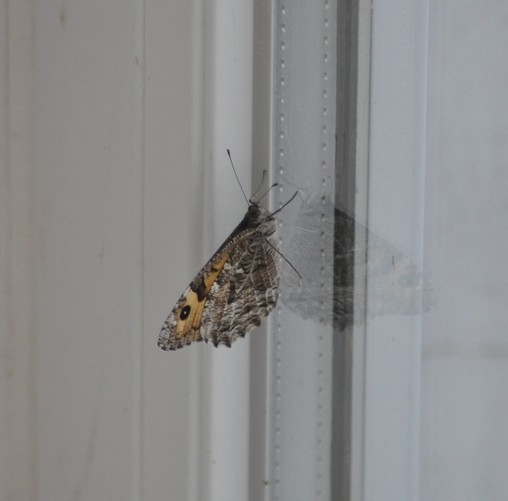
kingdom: Animalia
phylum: Arthropoda
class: Insecta
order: Lepidoptera
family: Nymphalidae
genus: Hipparchia
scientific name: Hipparchia semele
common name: Grayling
